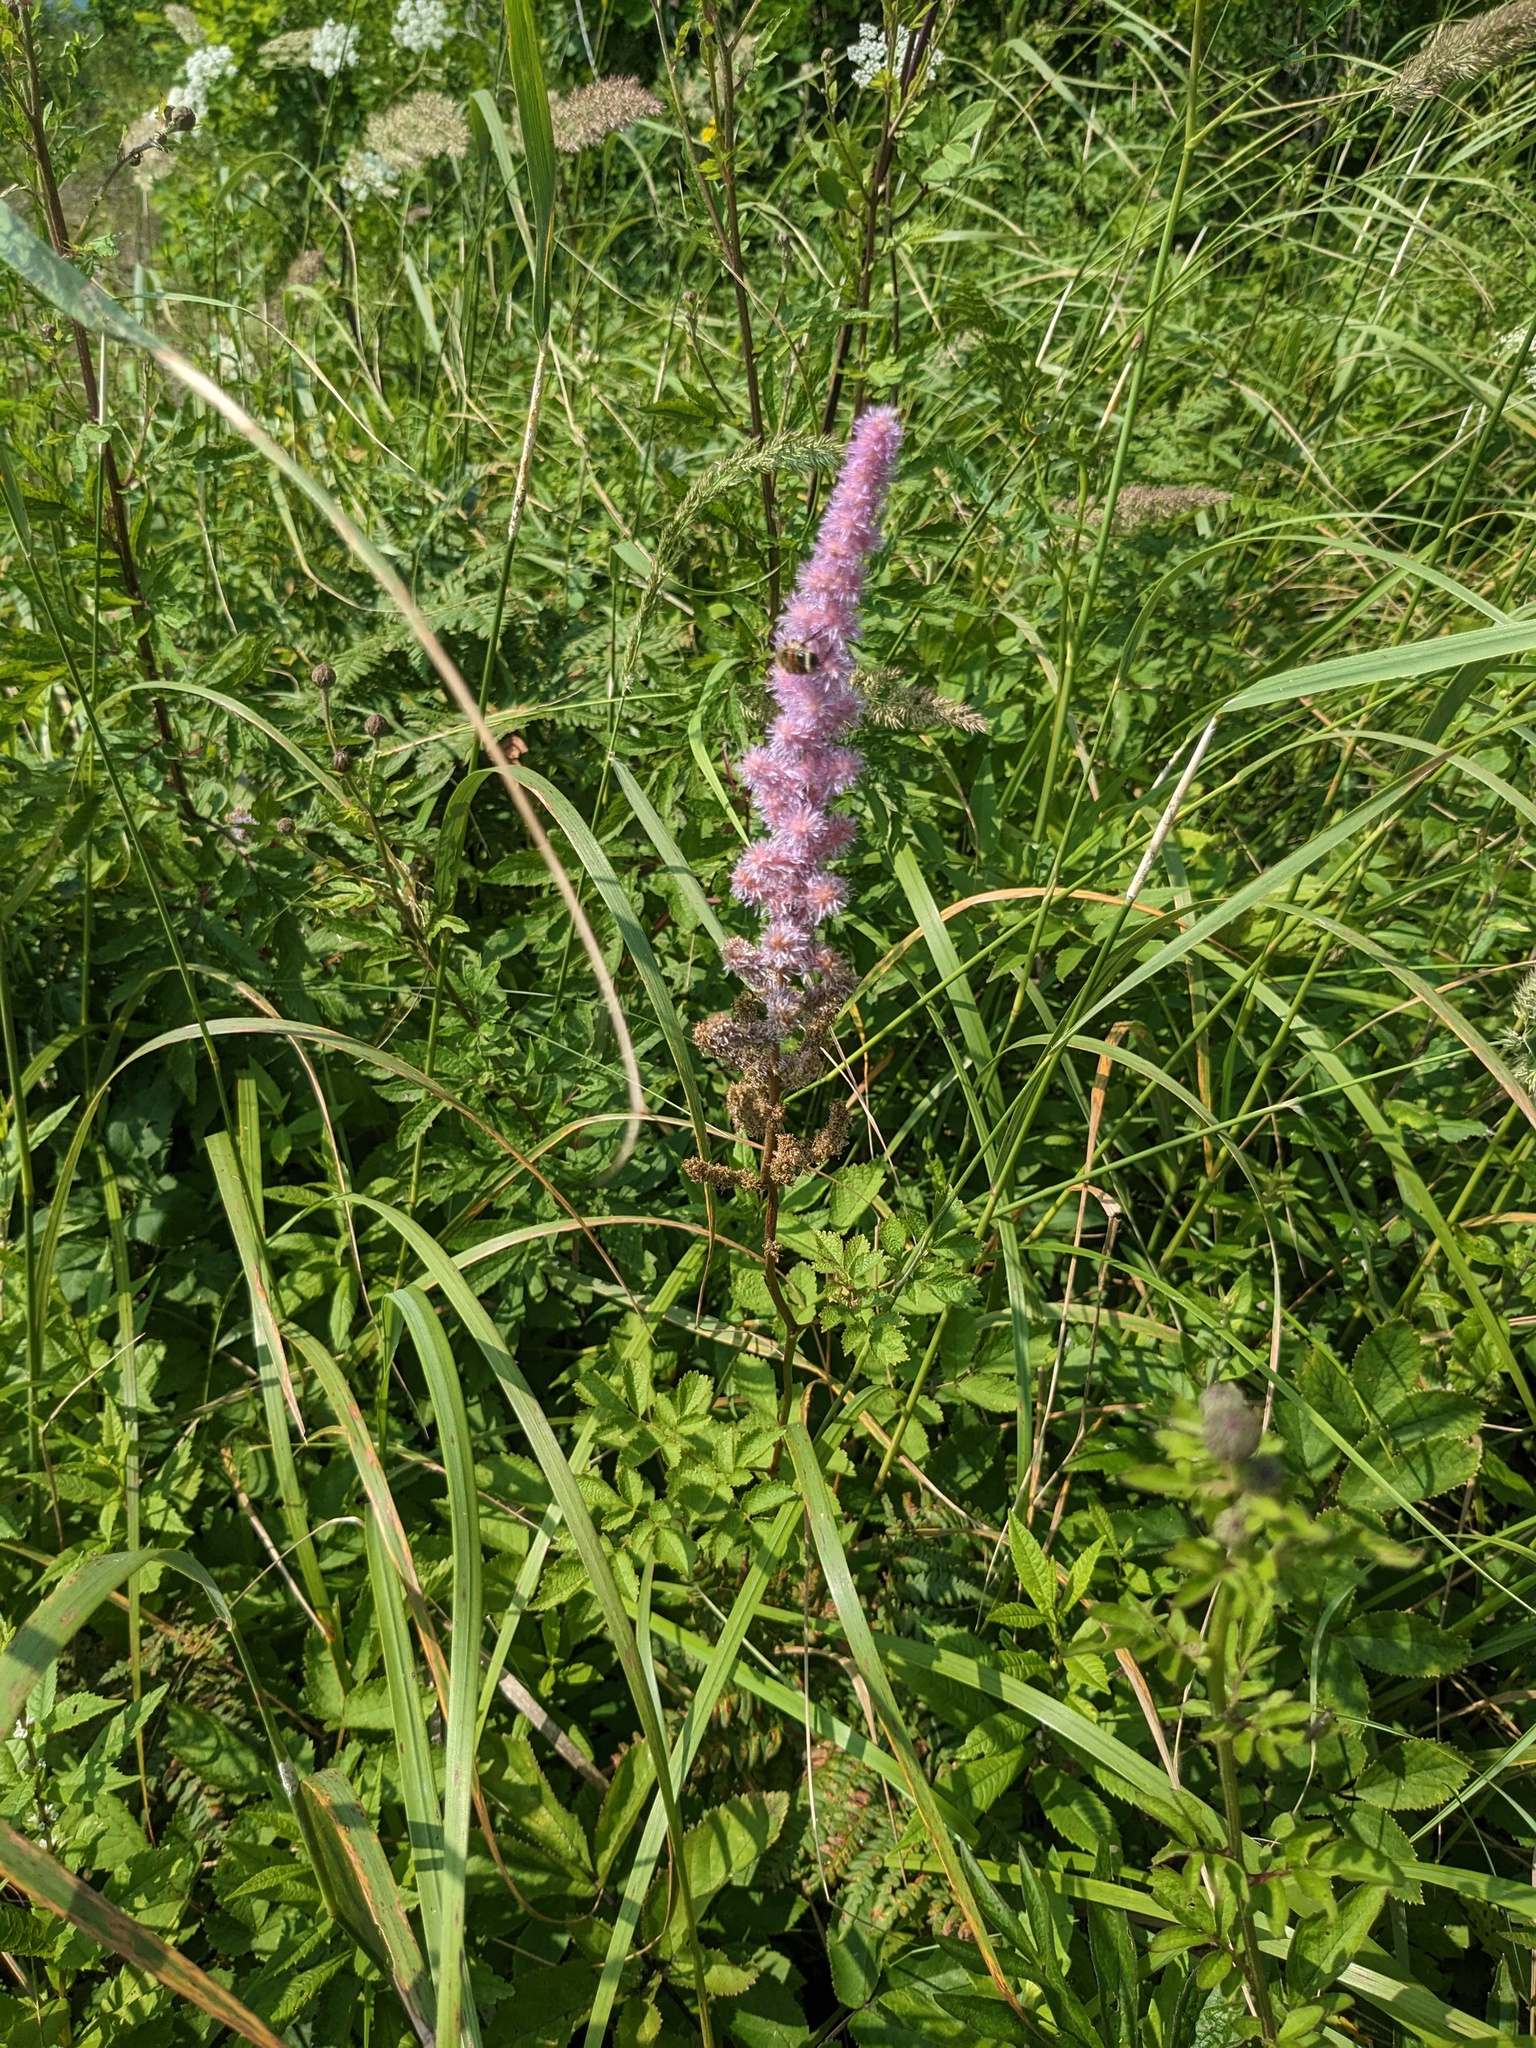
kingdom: Plantae
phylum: Tracheophyta
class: Magnoliopsida
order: Saxifragales
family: Saxifragaceae
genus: Astilbe
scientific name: Astilbe rubra
